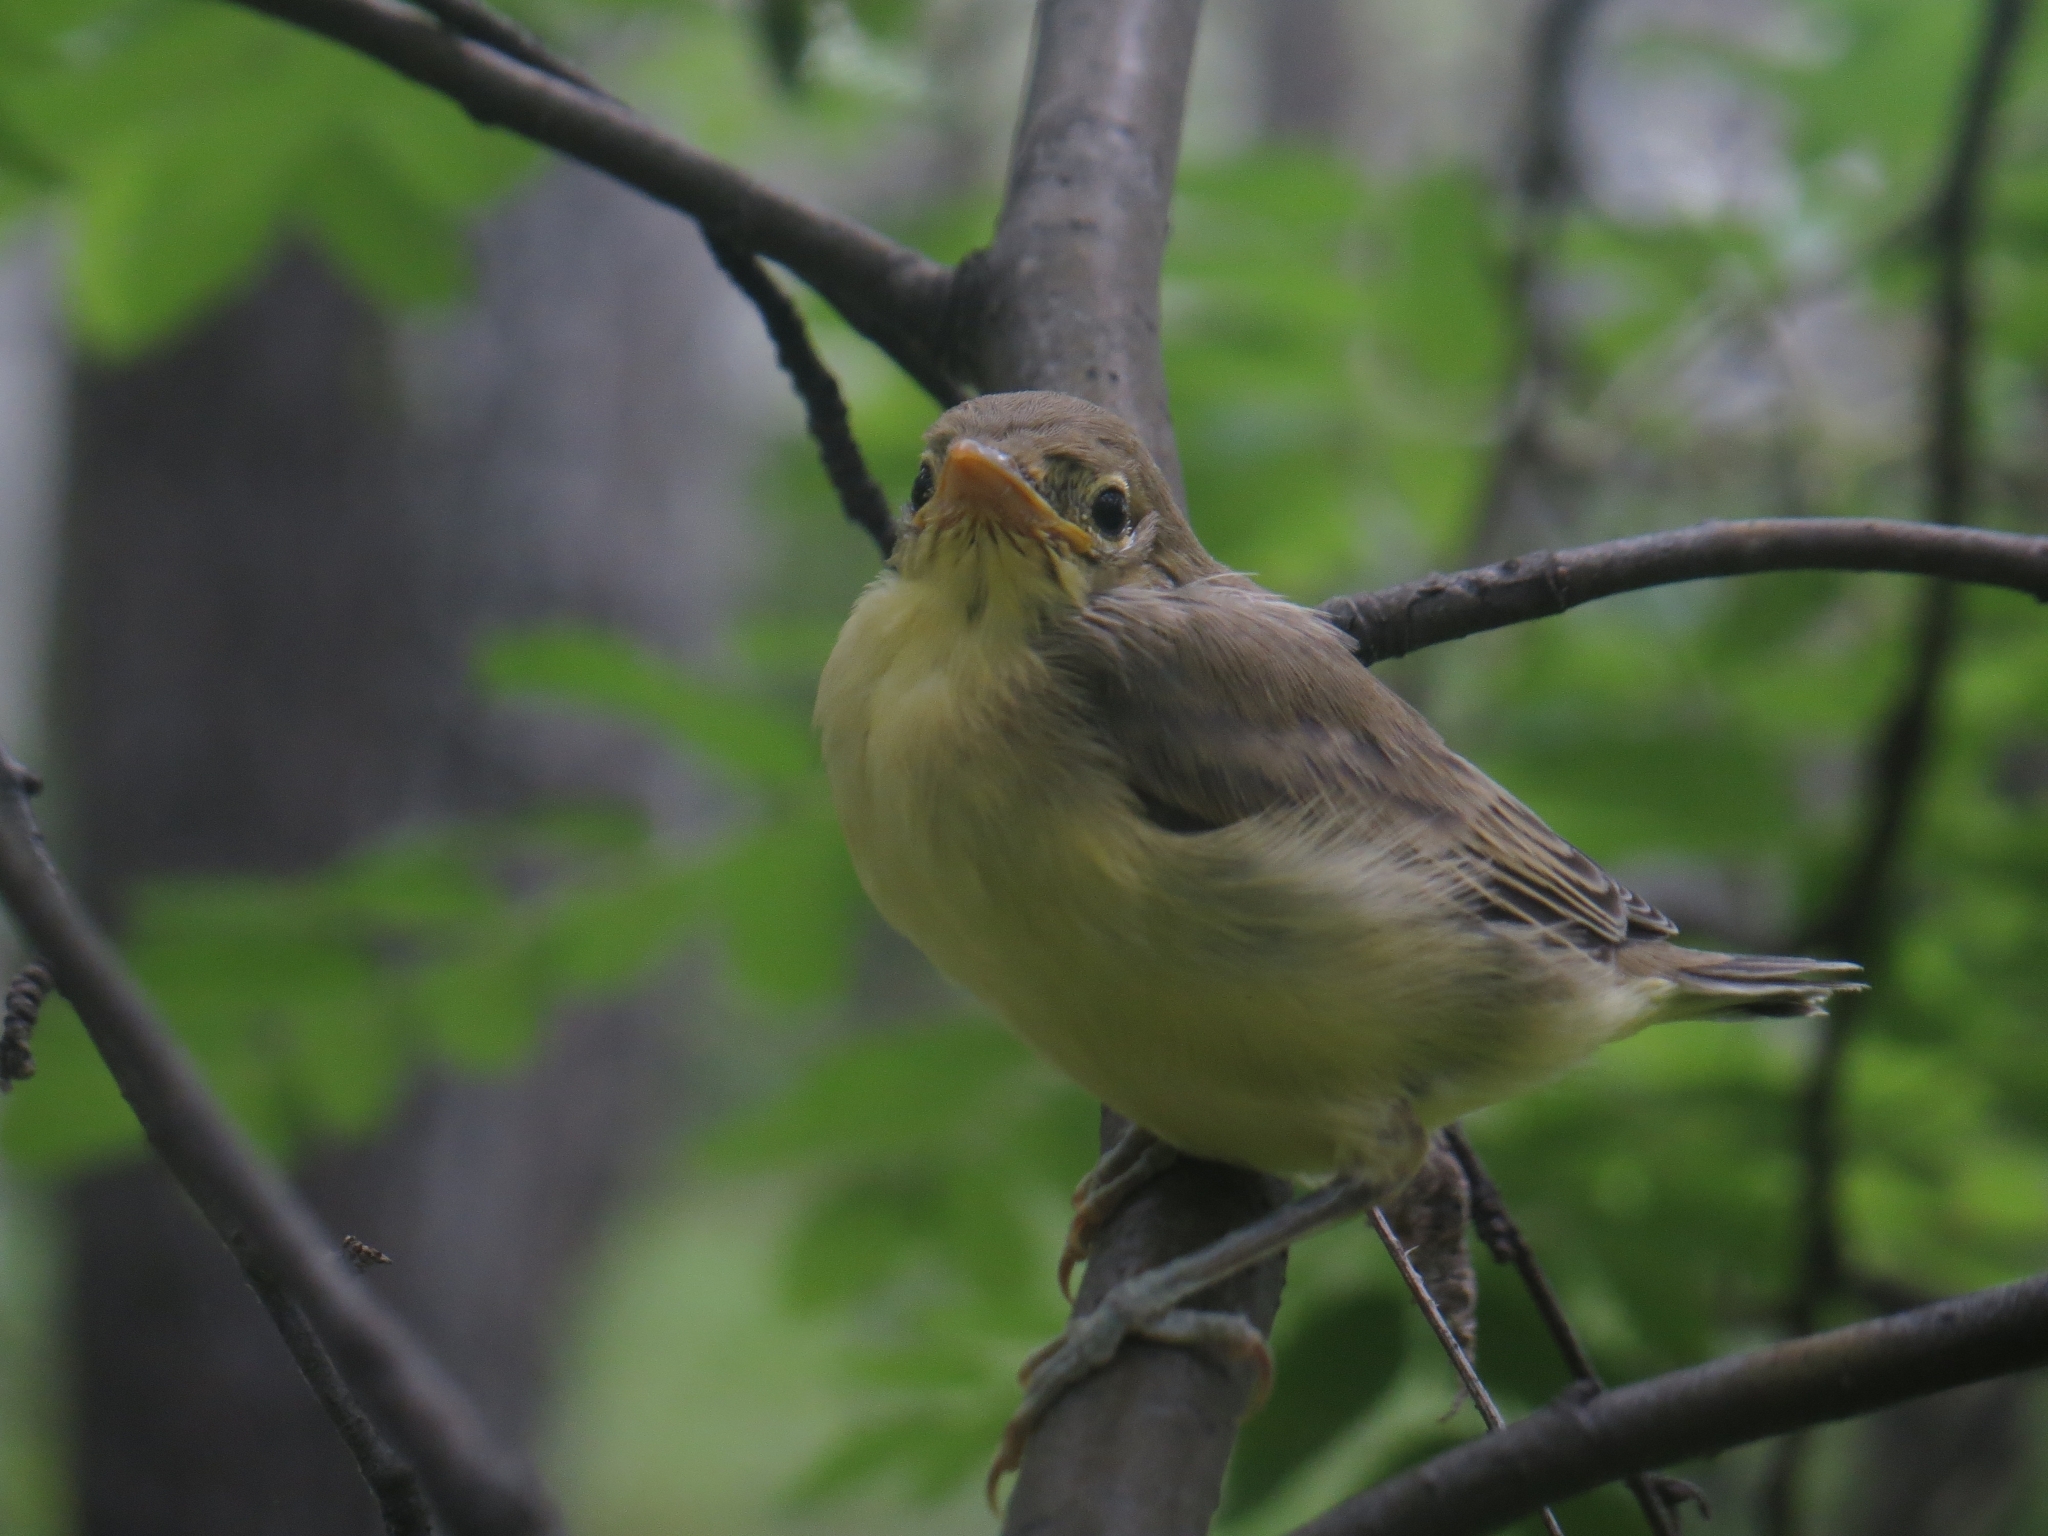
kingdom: Animalia
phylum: Chordata
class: Aves
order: Passeriformes
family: Acrocephalidae
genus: Hippolais
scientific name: Hippolais icterina
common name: Icterine warbler
